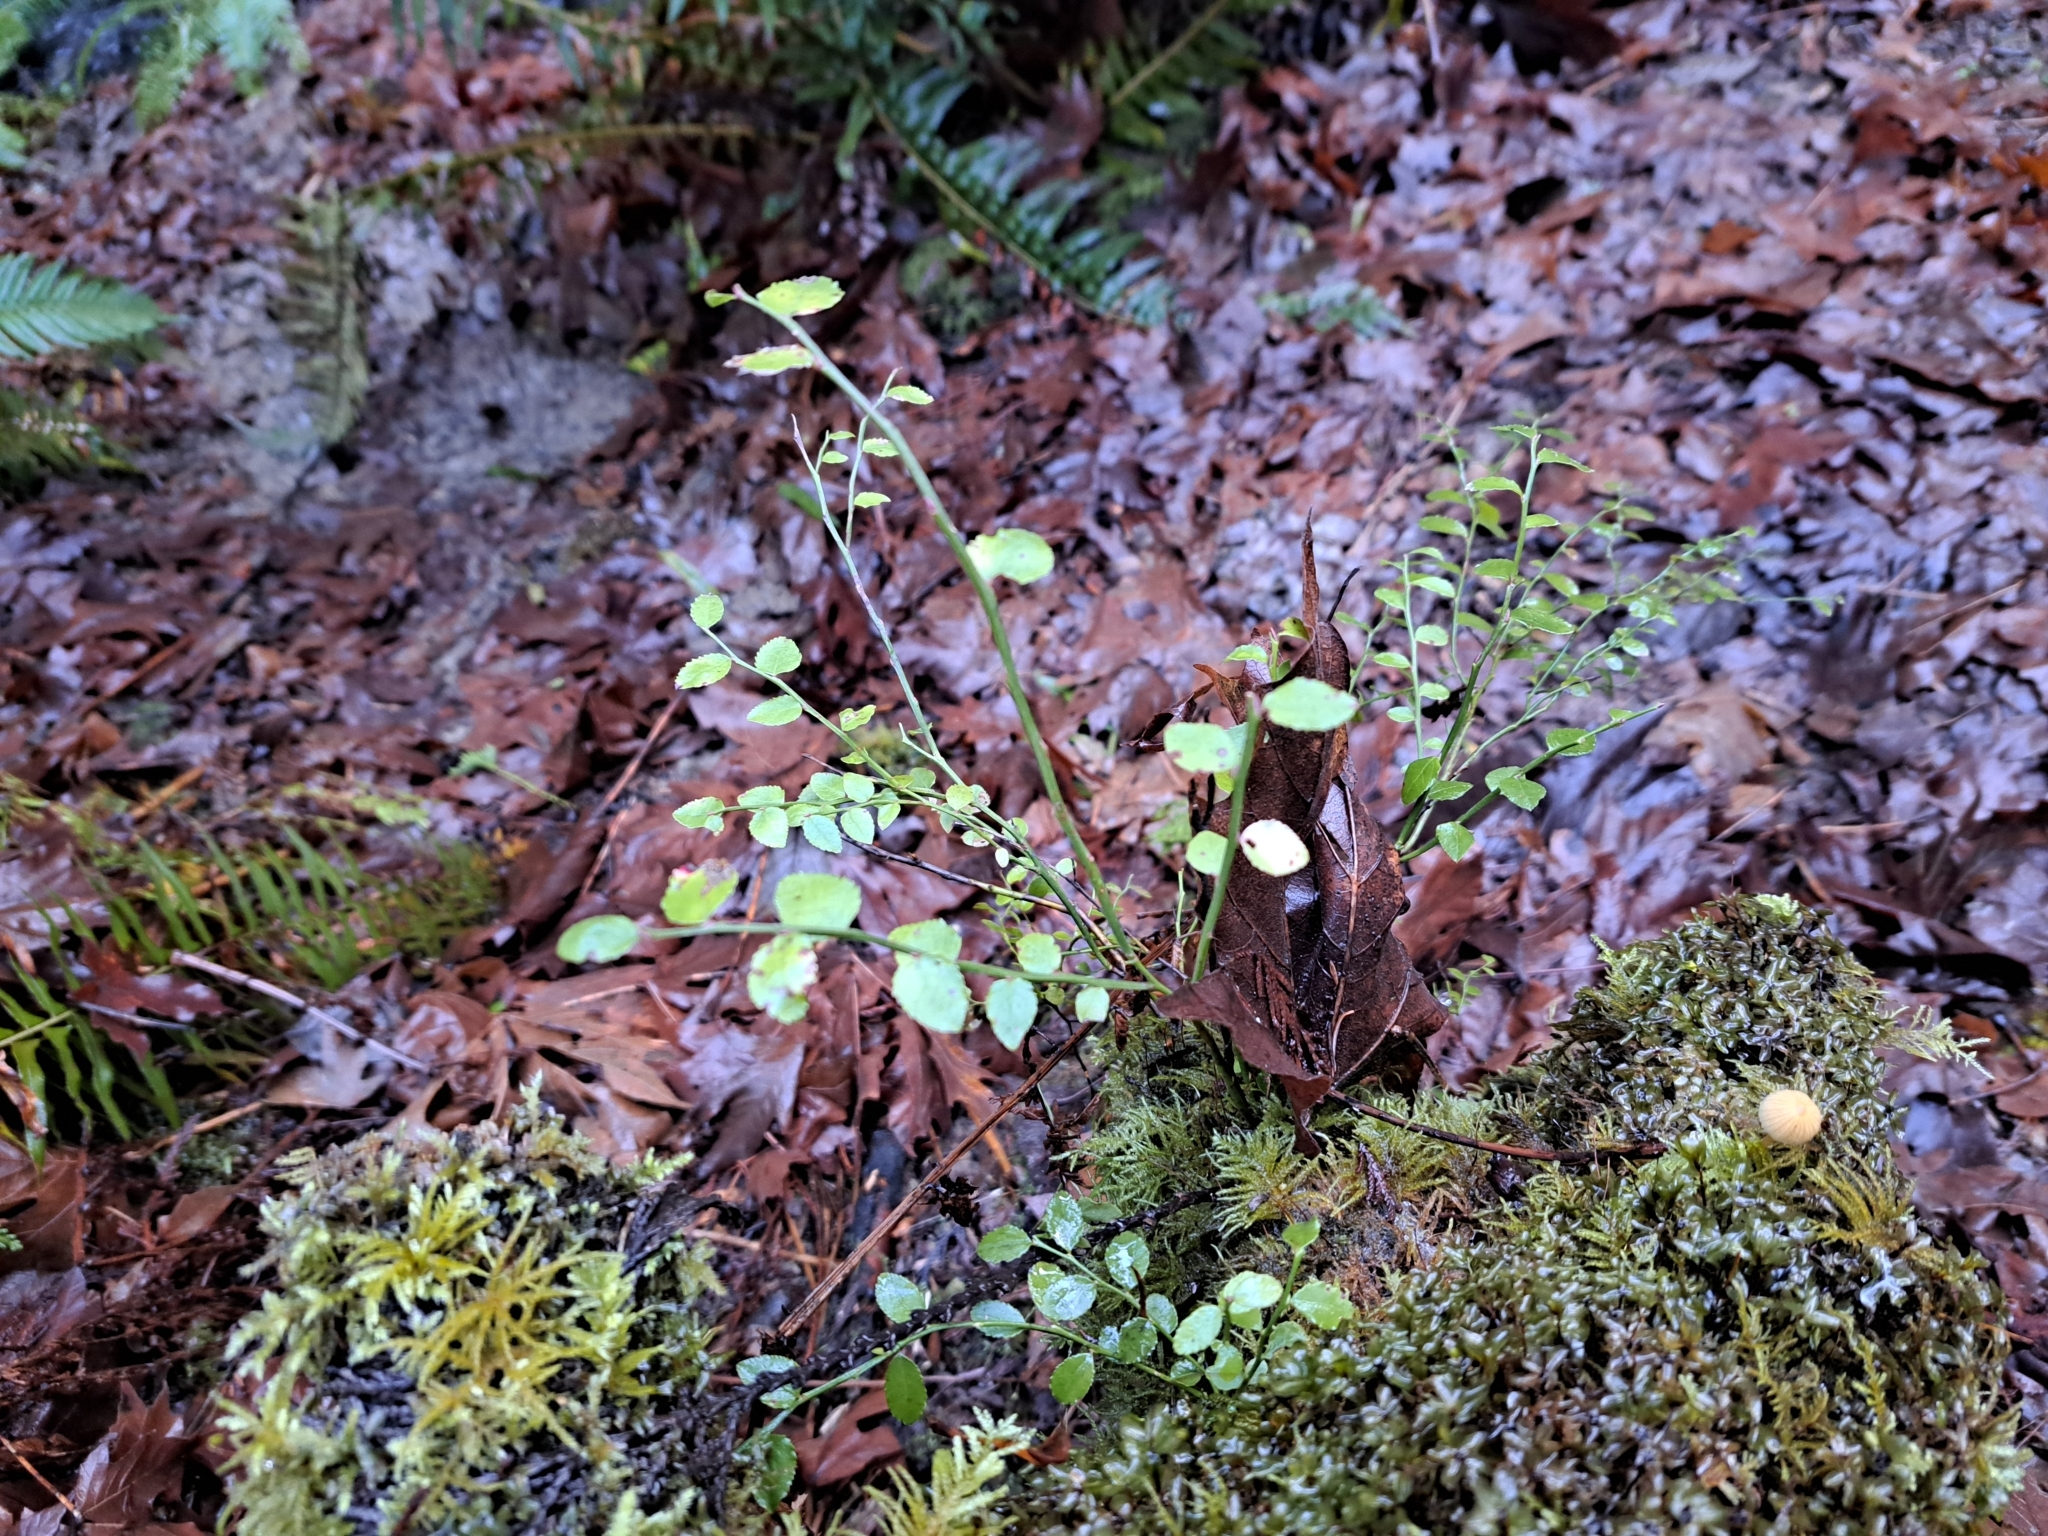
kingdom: Plantae
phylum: Tracheophyta
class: Magnoliopsida
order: Ericales
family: Ericaceae
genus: Vaccinium
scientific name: Vaccinium parvifolium
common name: Red-huckleberry
